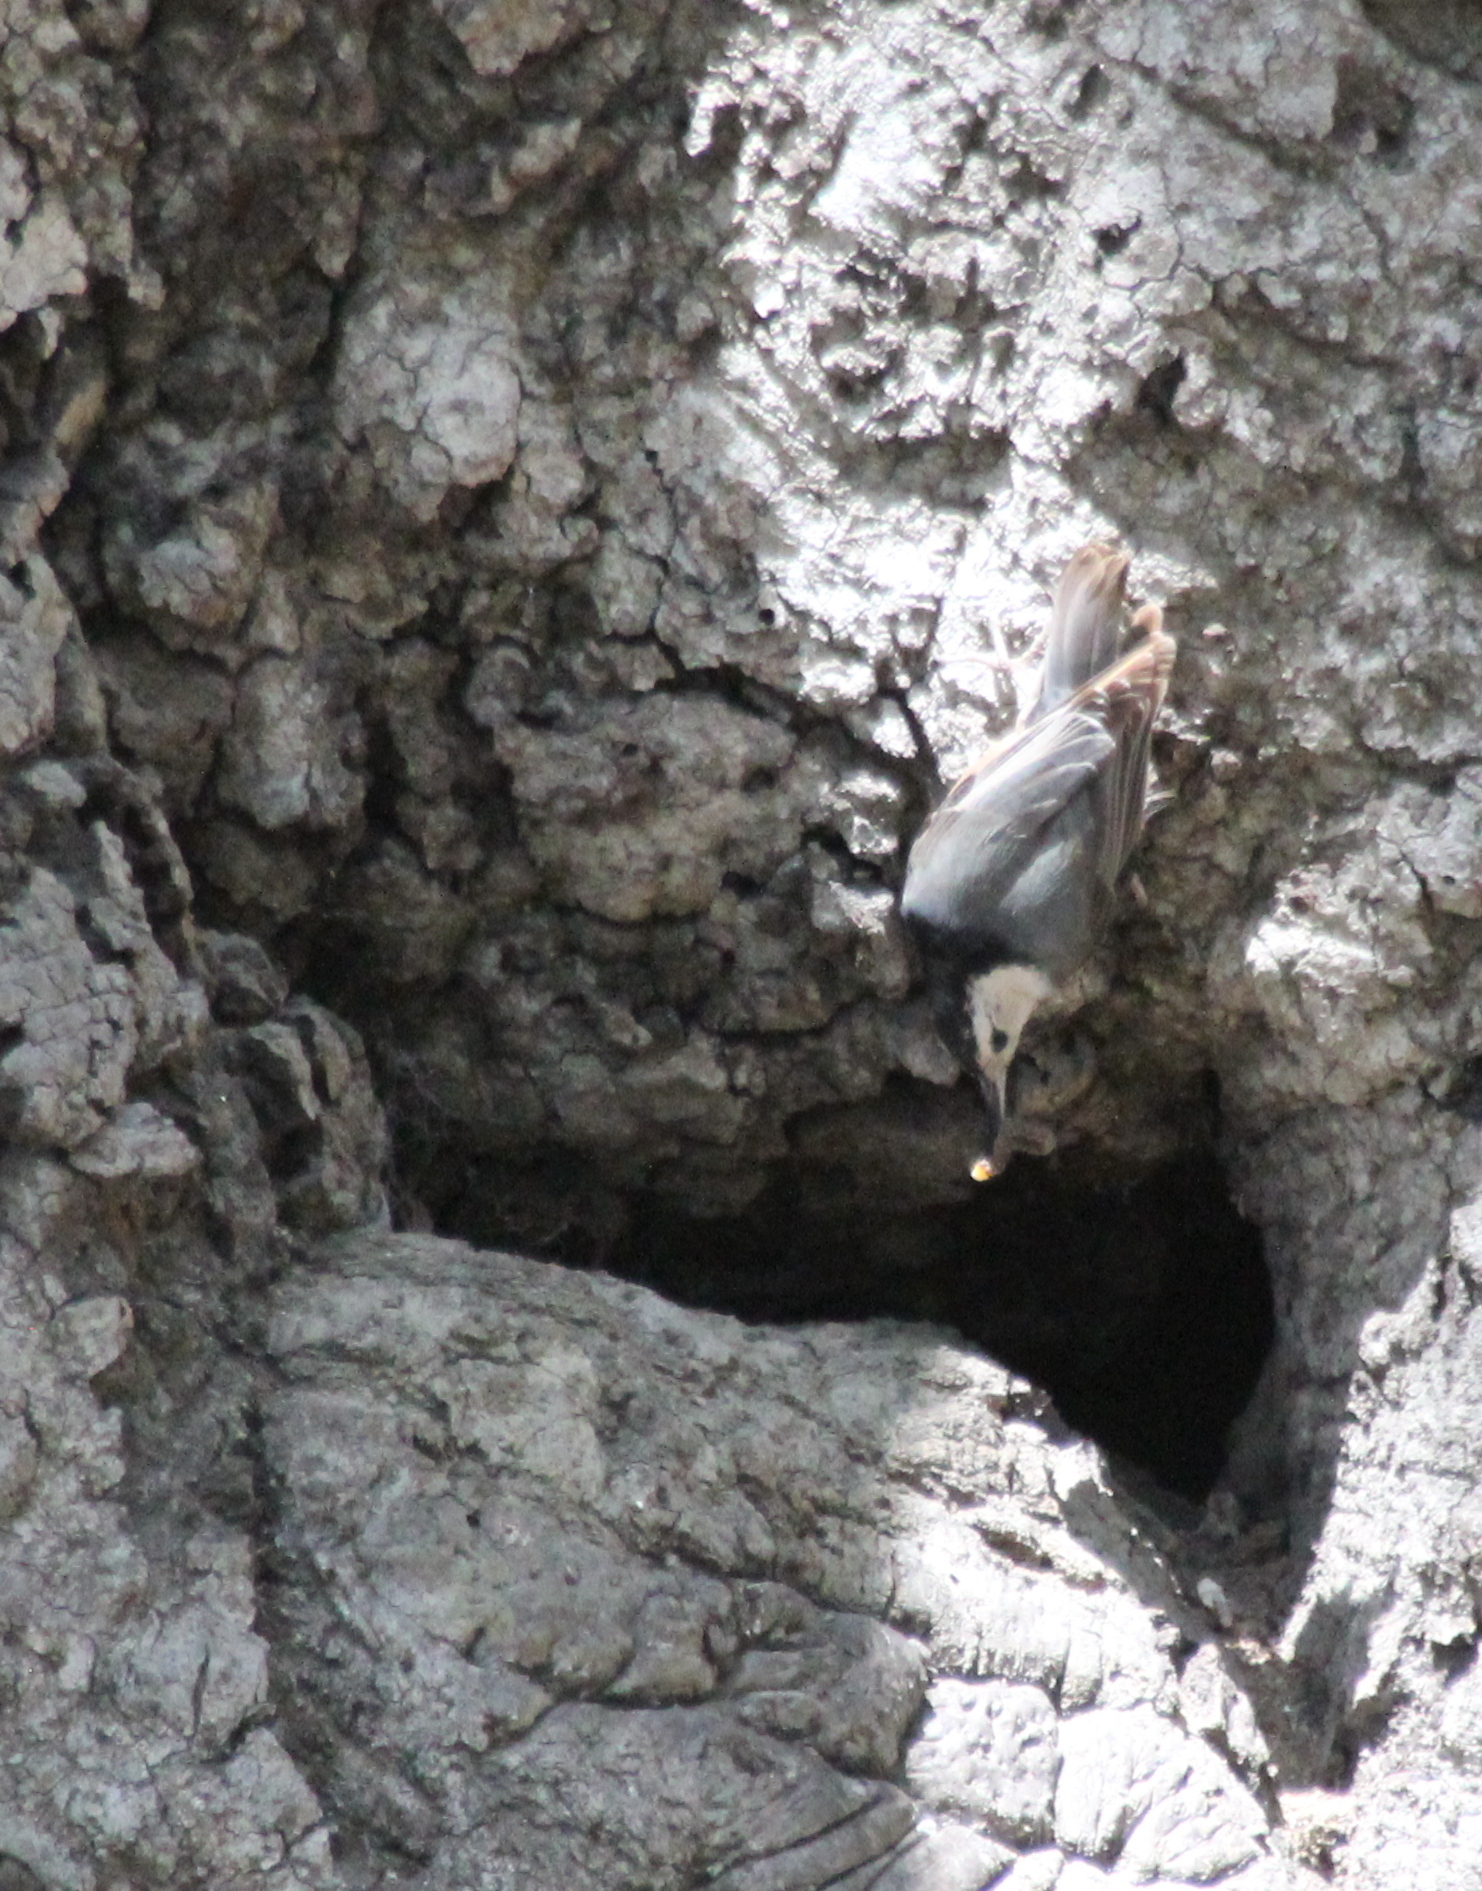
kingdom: Animalia
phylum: Chordata
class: Aves
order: Passeriformes
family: Sittidae
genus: Sitta
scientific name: Sitta carolinensis
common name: White-breasted nuthatch
